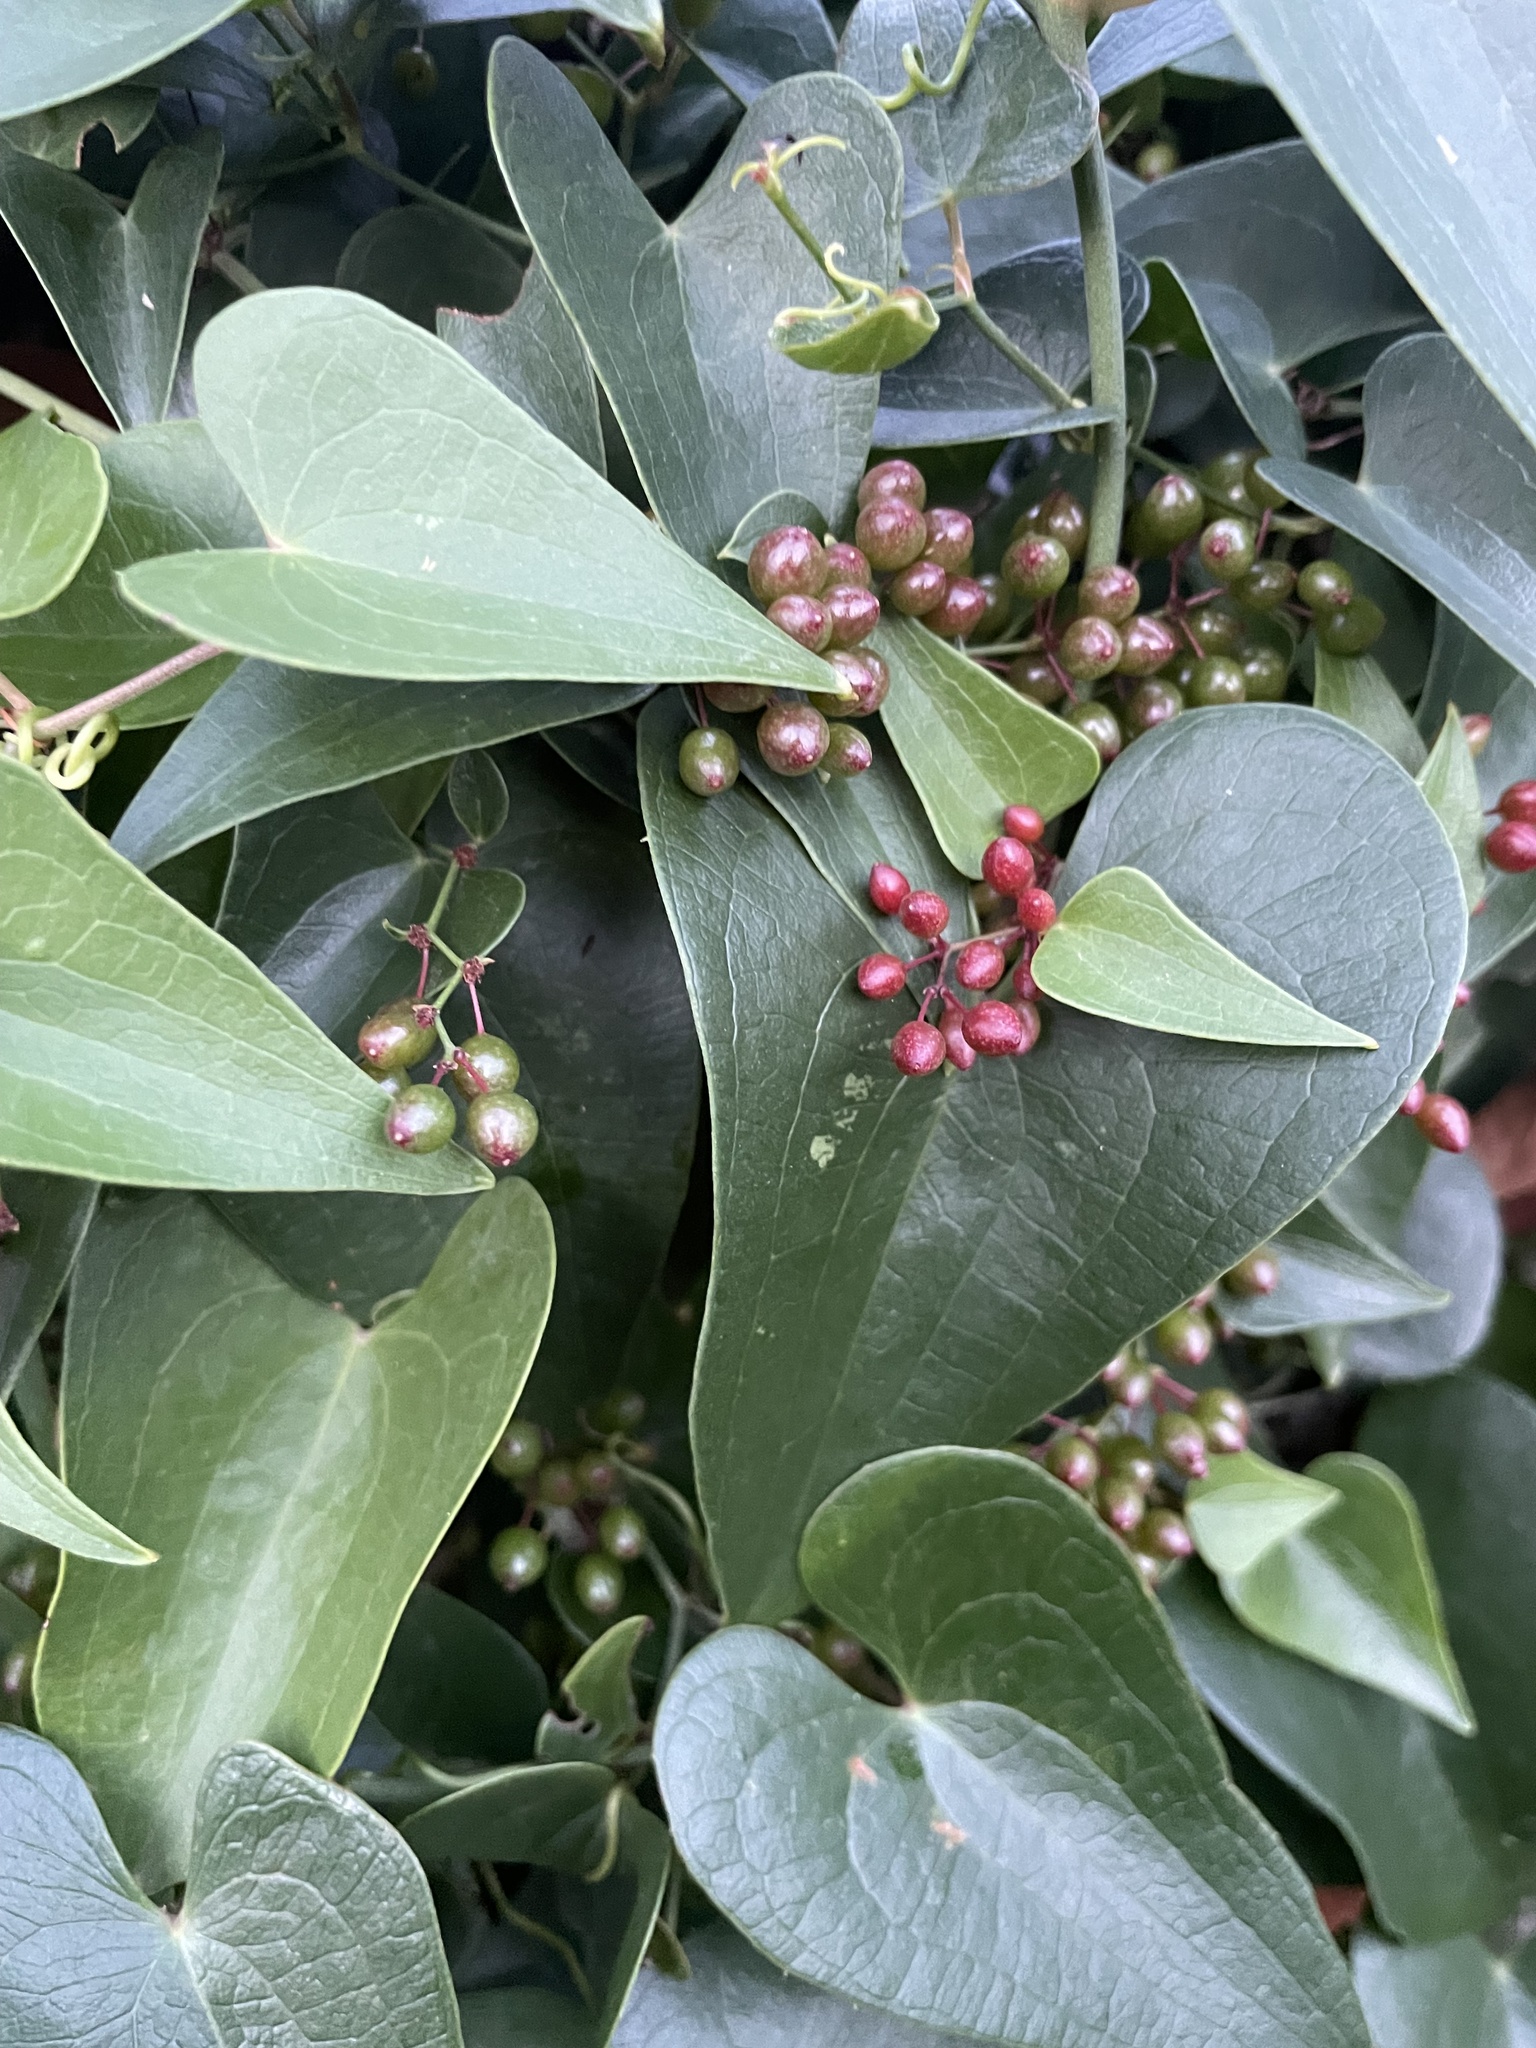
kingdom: Plantae
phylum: Tracheophyta
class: Liliopsida
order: Liliales
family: Smilacaceae
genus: Smilax
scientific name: Smilax aspera
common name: Common smilax
